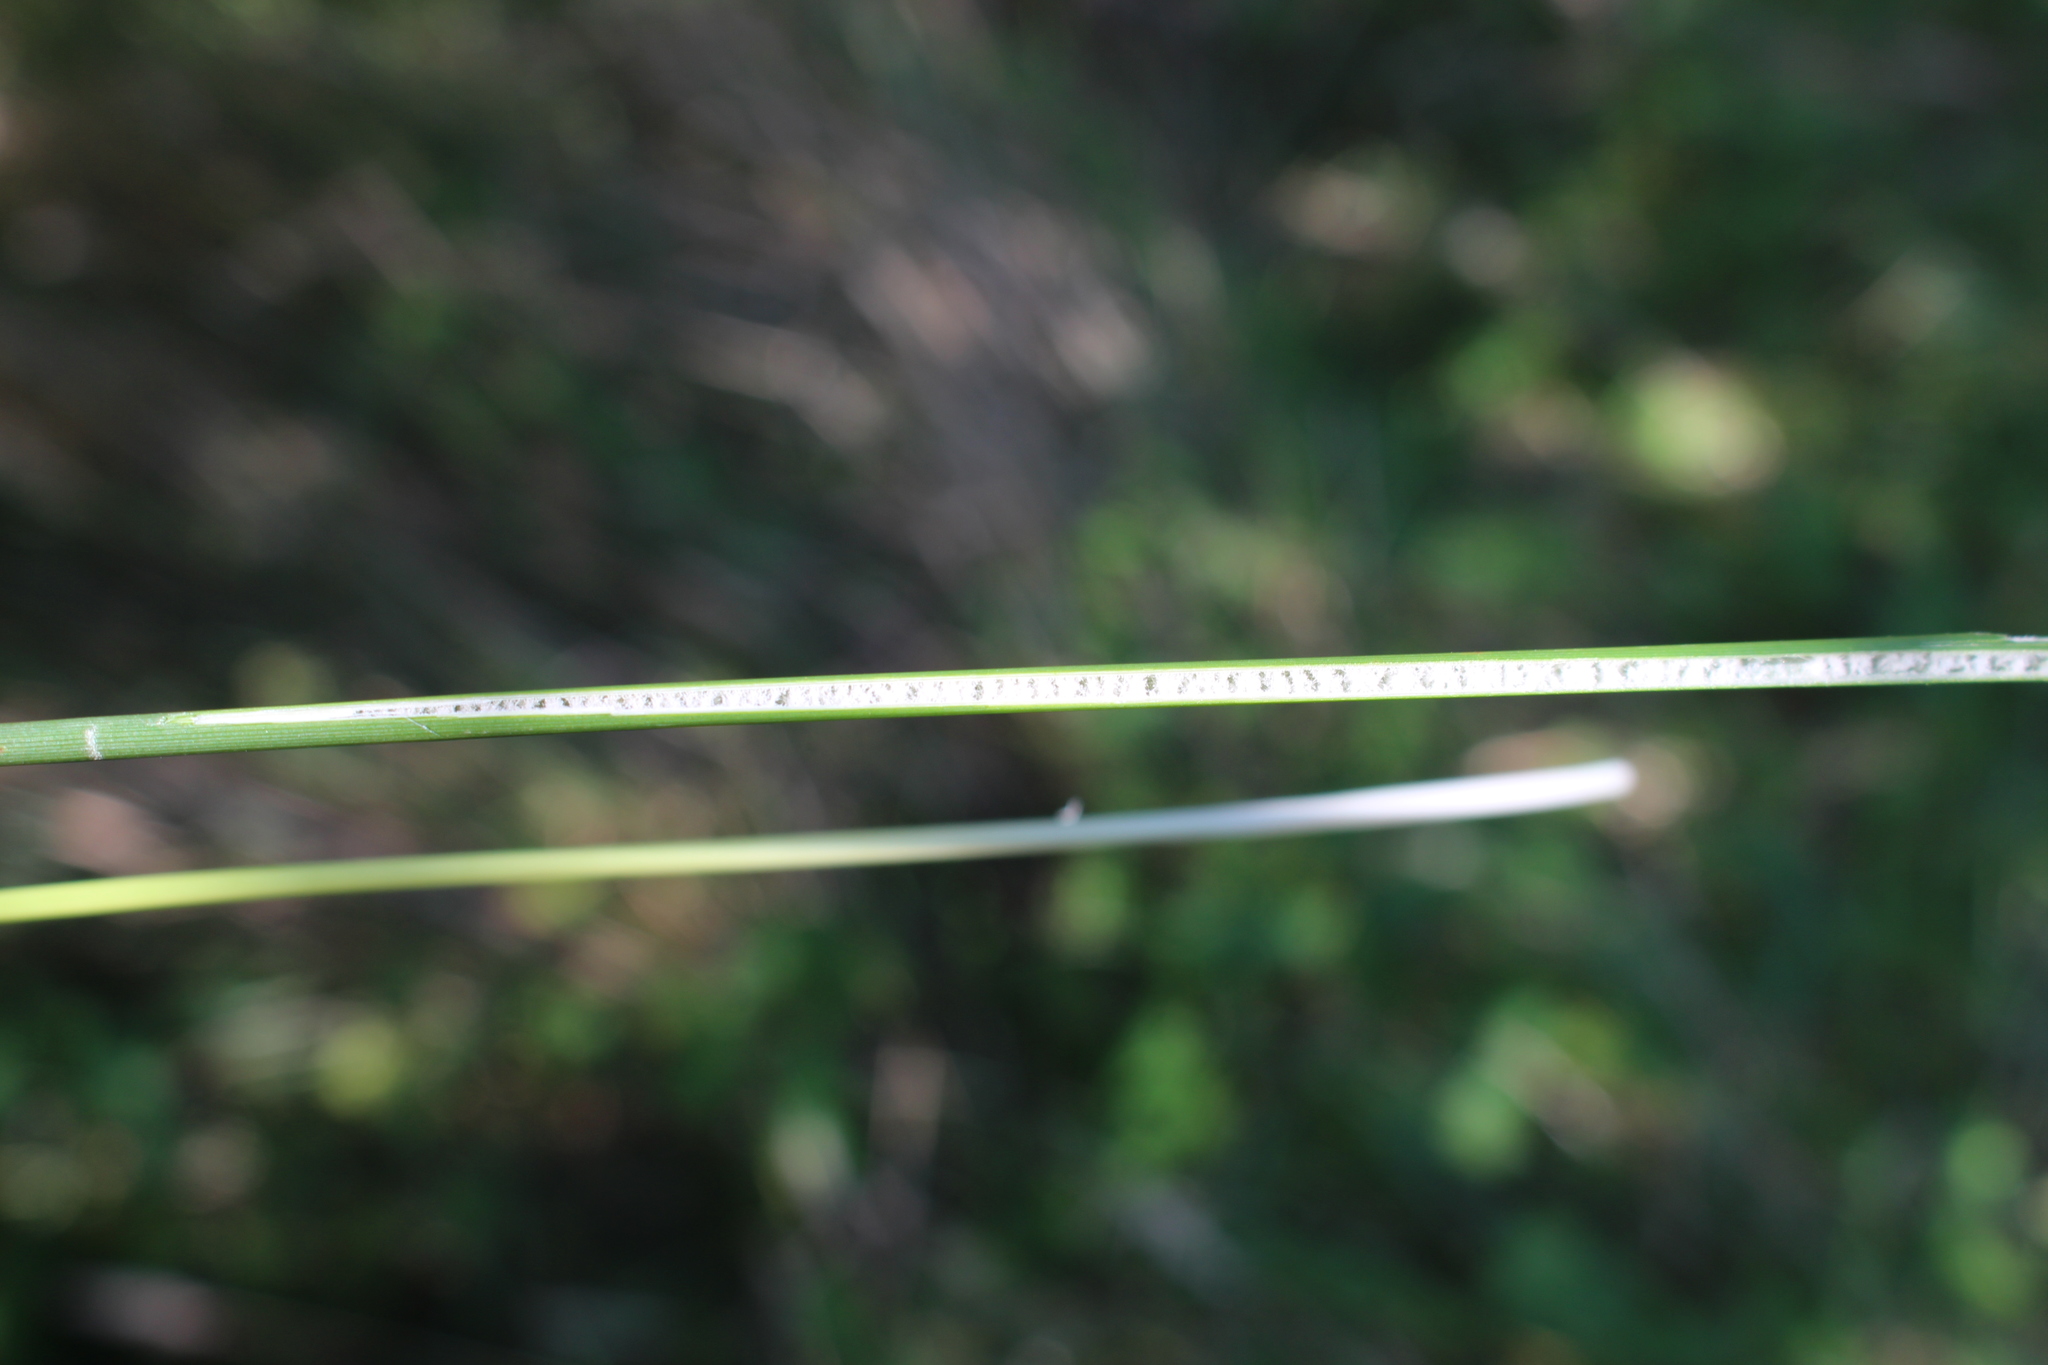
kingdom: Plantae
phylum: Tracheophyta
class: Liliopsida
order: Poales
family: Juncaceae
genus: Juncus
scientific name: Juncus sarophorus
